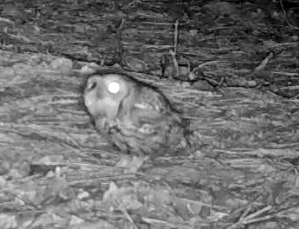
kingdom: Animalia
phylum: Chordata
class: Aves
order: Strigiformes
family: Strigidae
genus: Megascops
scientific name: Megascops asio
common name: Eastern screech-owl
